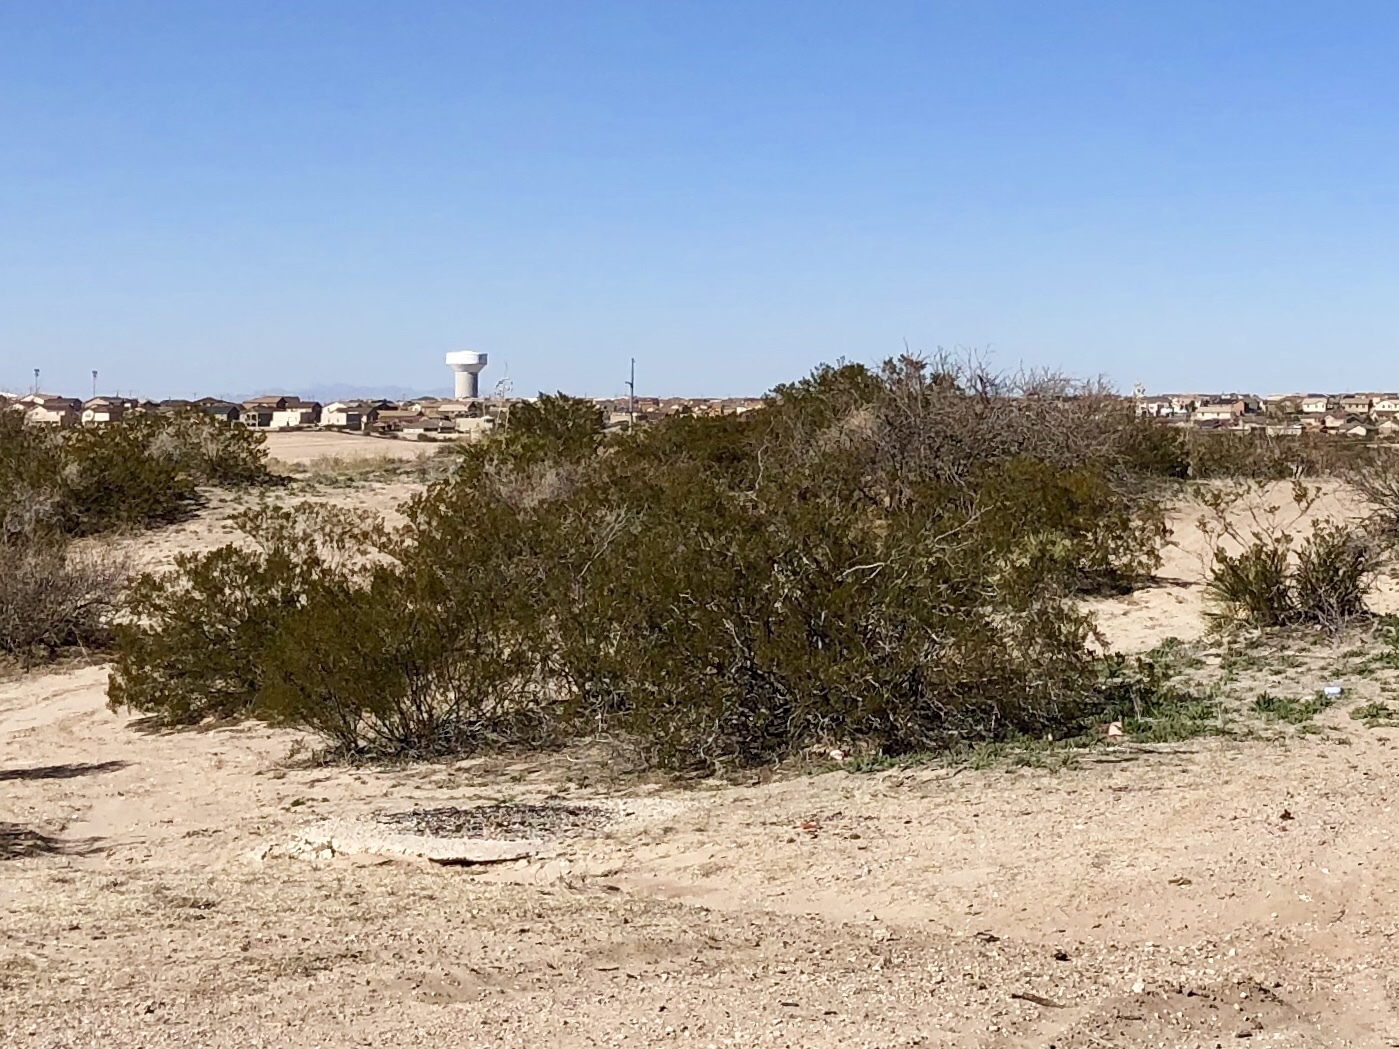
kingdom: Plantae
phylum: Tracheophyta
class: Magnoliopsida
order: Zygophyllales
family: Zygophyllaceae
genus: Larrea
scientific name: Larrea tridentata
